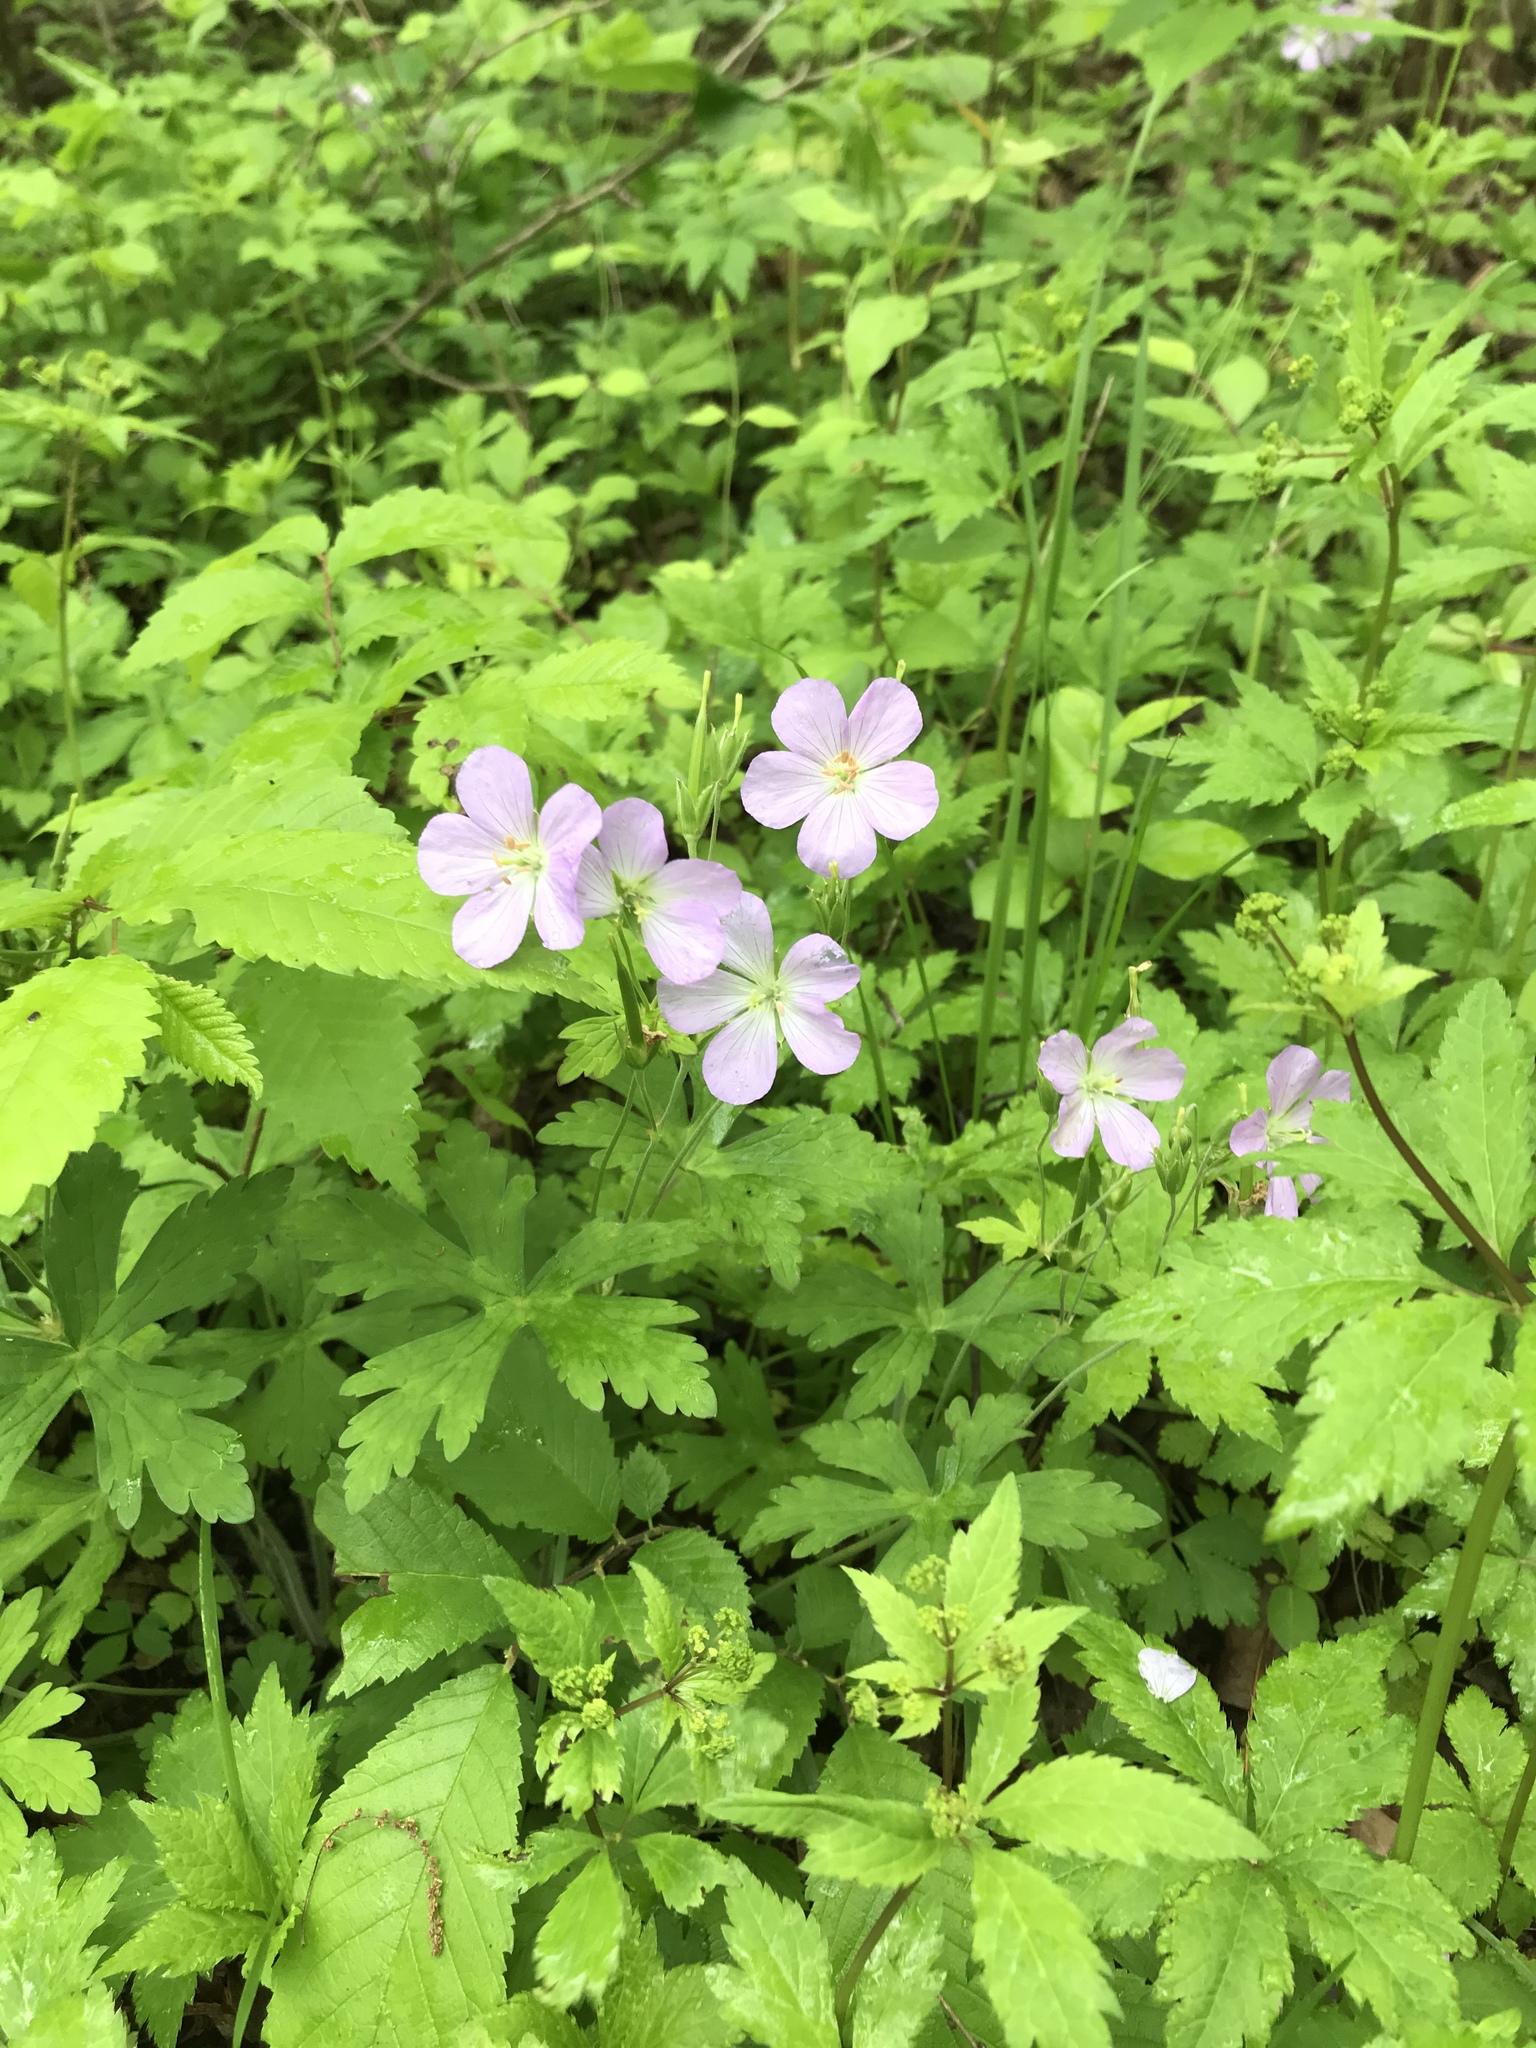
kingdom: Plantae
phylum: Tracheophyta
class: Magnoliopsida
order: Geraniales
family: Geraniaceae
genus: Geranium
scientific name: Geranium maculatum
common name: Spotted geranium
